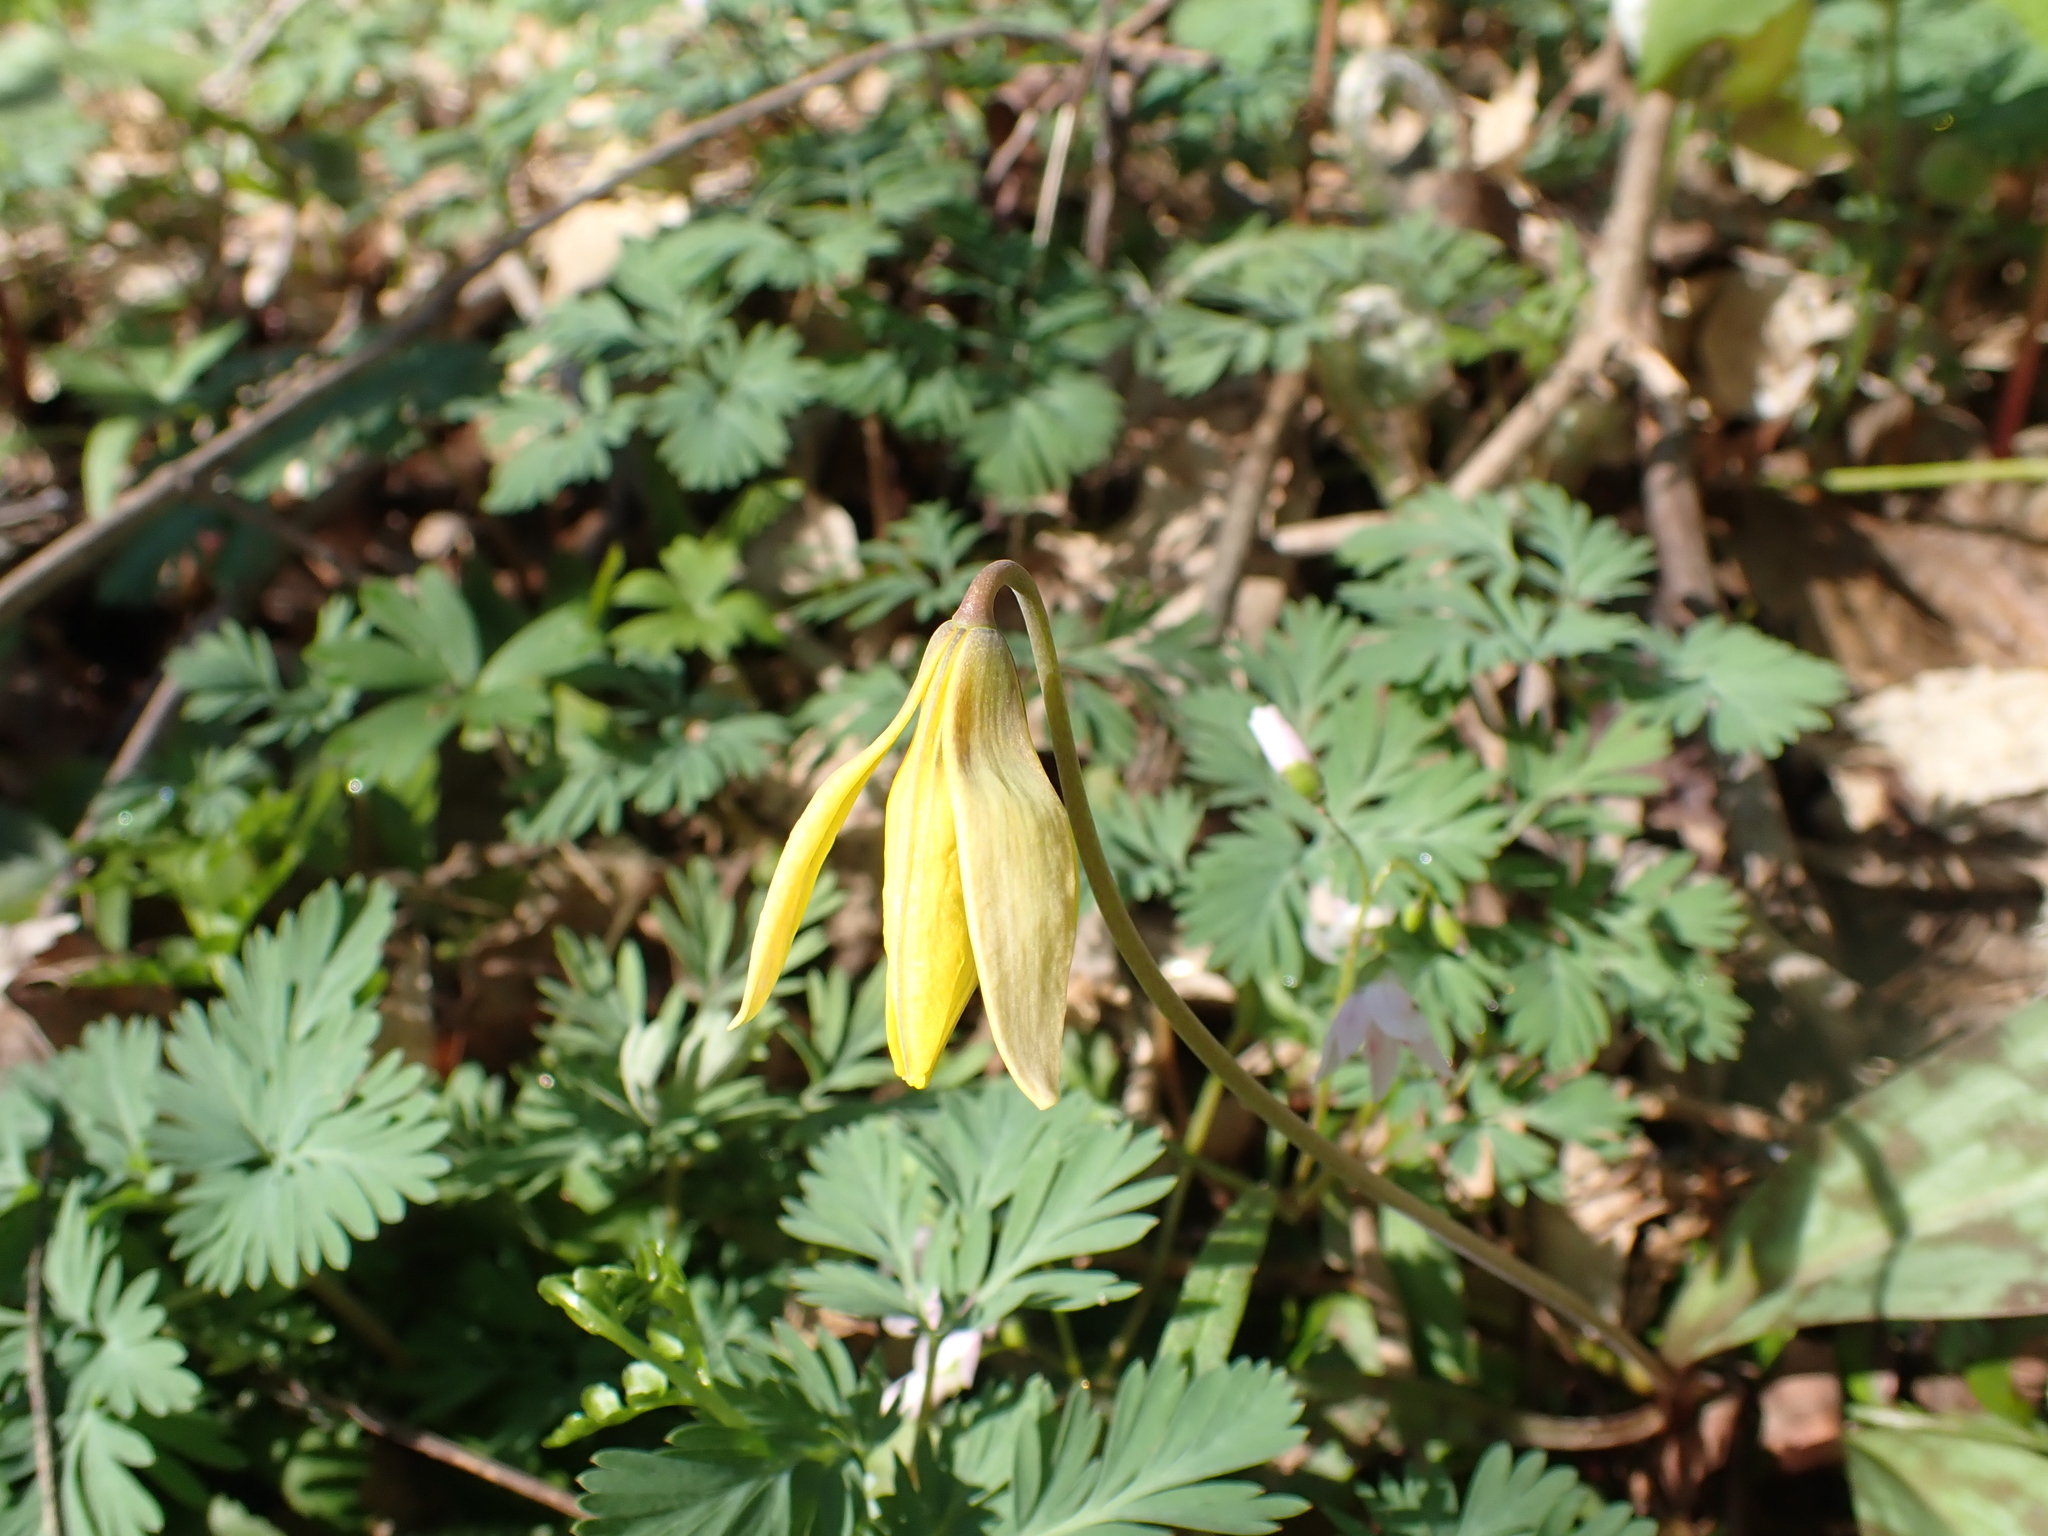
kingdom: Plantae
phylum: Tracheophyta
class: Liliopsida
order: Liliales
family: Liliaceae
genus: Erythronium
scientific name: Erythronium americanum
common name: Yellow adder's-tongue
